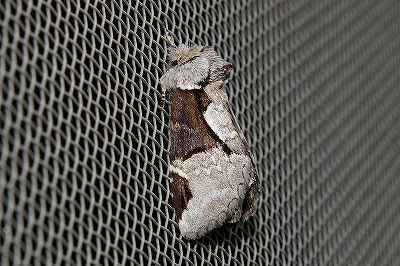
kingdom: Animalia
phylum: Arthropoda
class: Insecta
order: Lepidoptera
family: Notodontidae
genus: Wilemanus
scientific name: Wilemanus bidentatus
